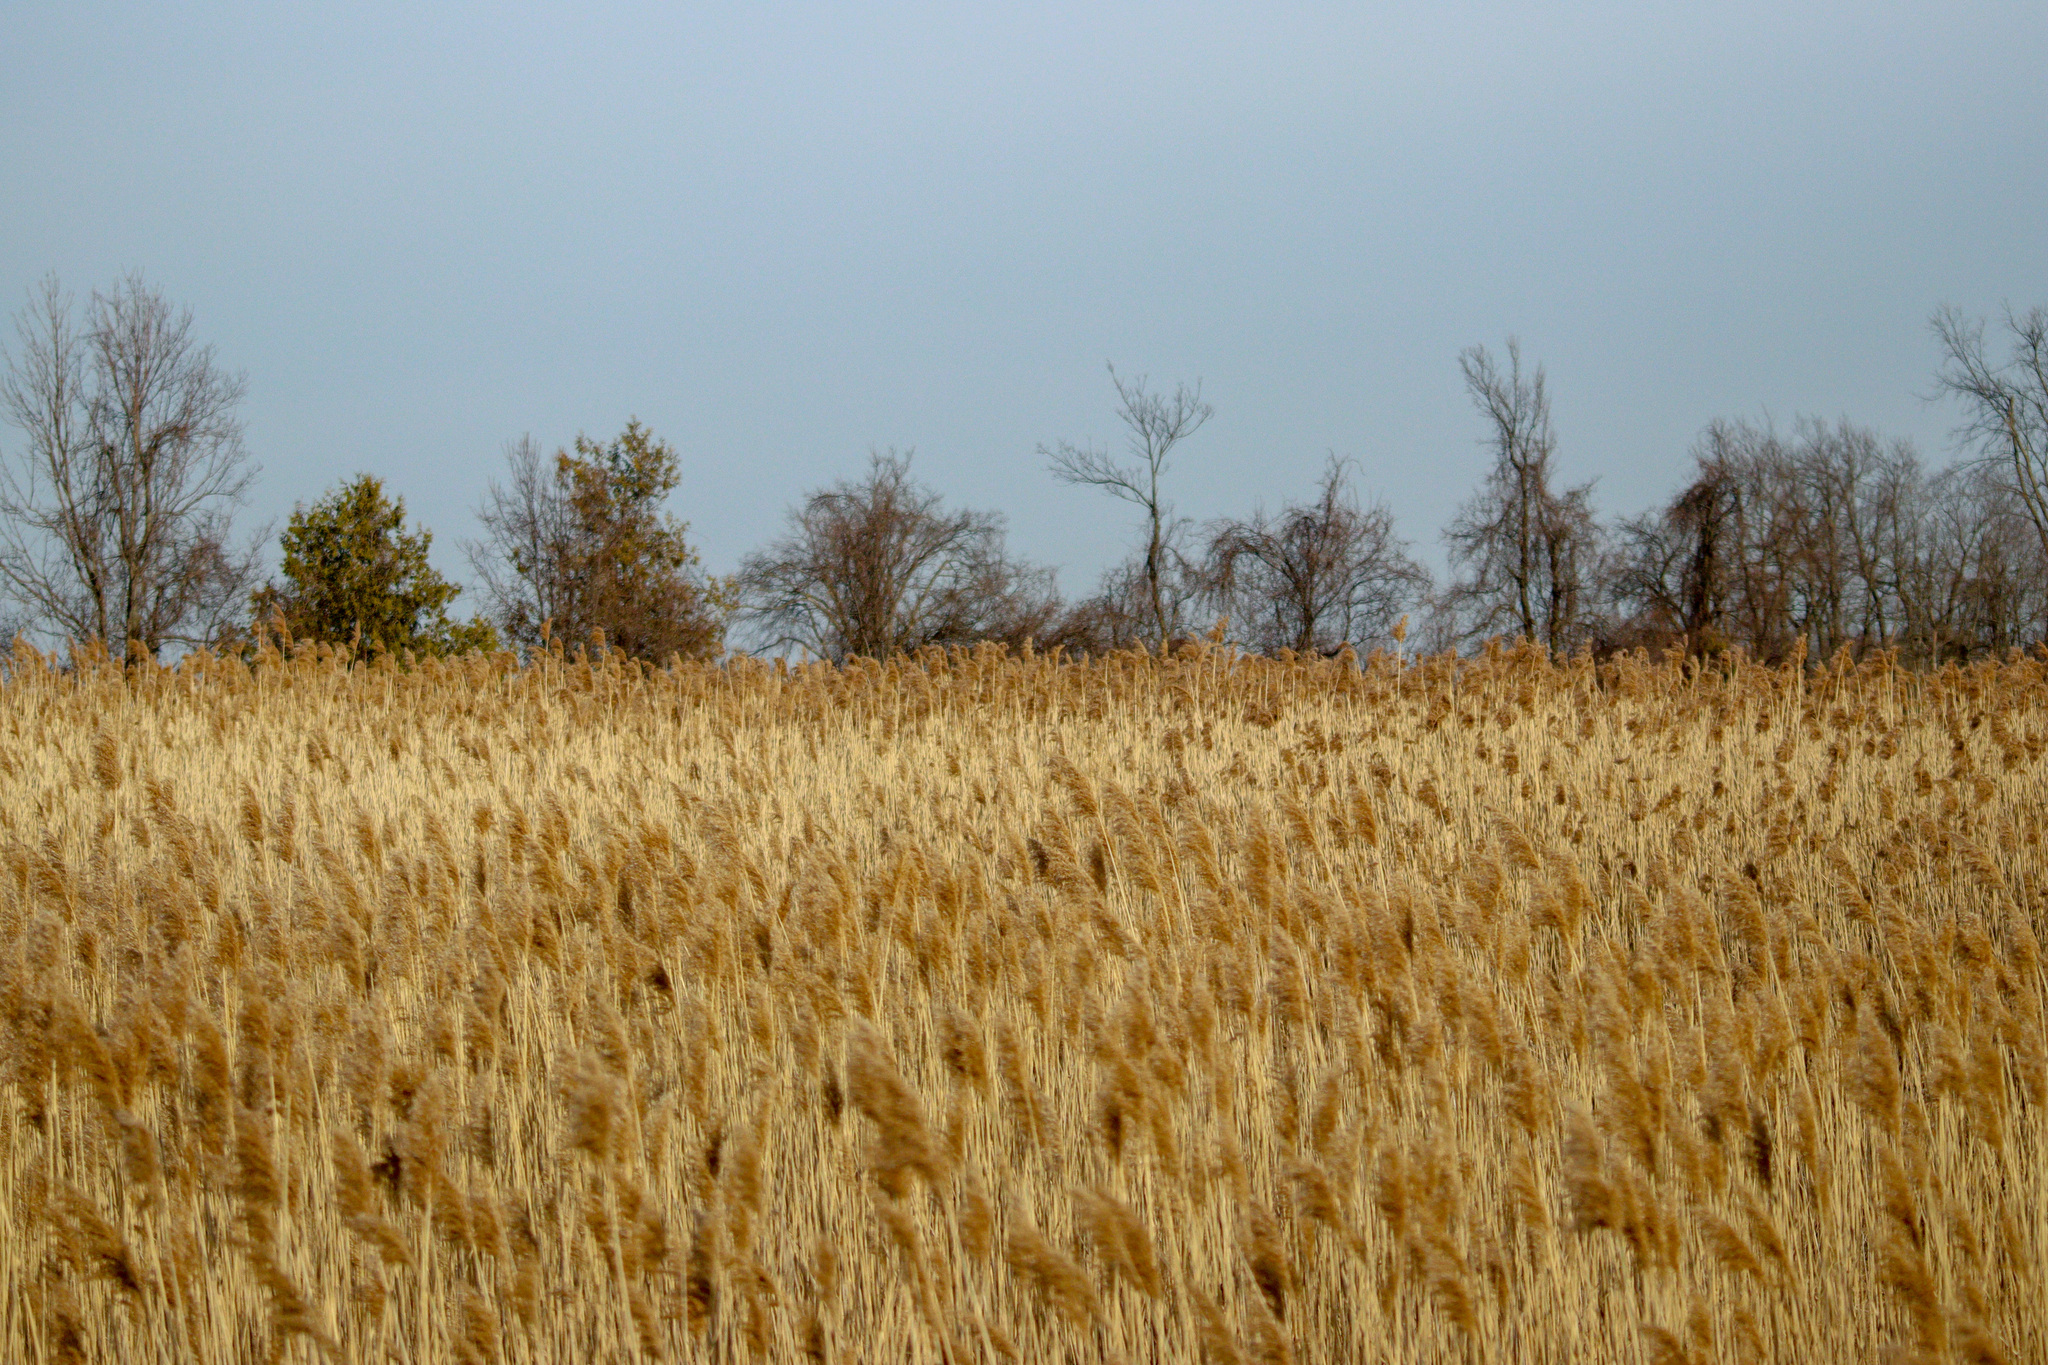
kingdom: Plantae
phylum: Tracheophyta
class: Liliopsida
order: Poales
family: Poaceae
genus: Phragmites
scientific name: Phragmites australis
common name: Common reed
